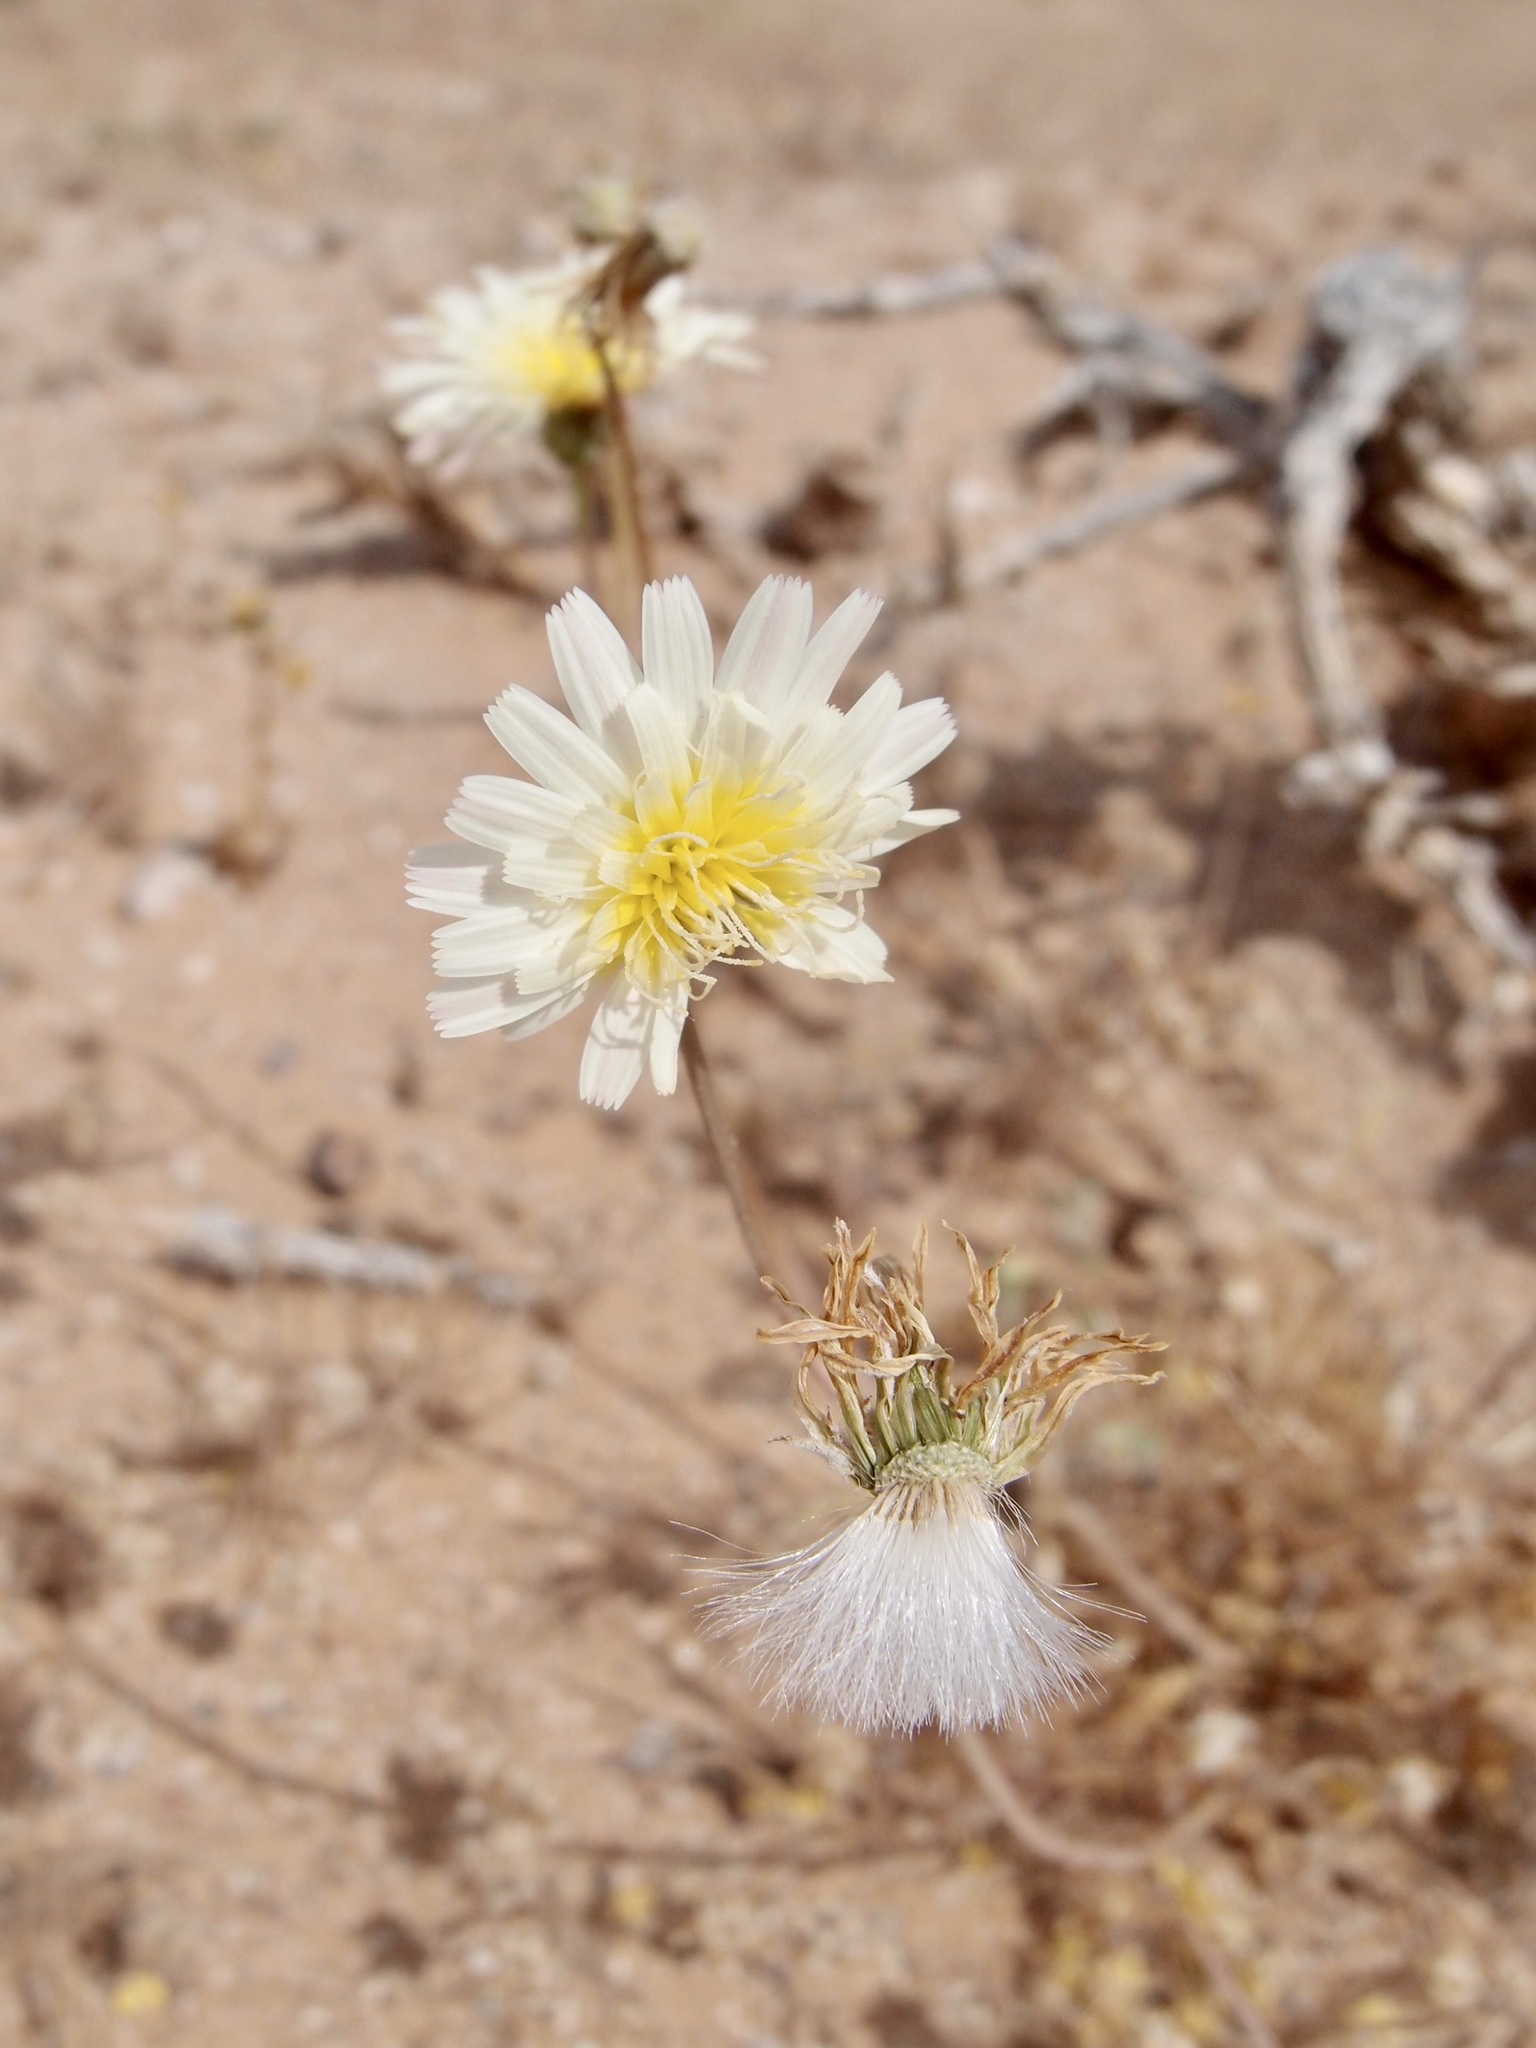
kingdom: Plantae
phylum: Tracheophyta
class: Magnoliopsida
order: Asterales
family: Asteraceae
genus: Malacothrix
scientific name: Malacothrix glabrata
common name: Smooth desert-dandelion
